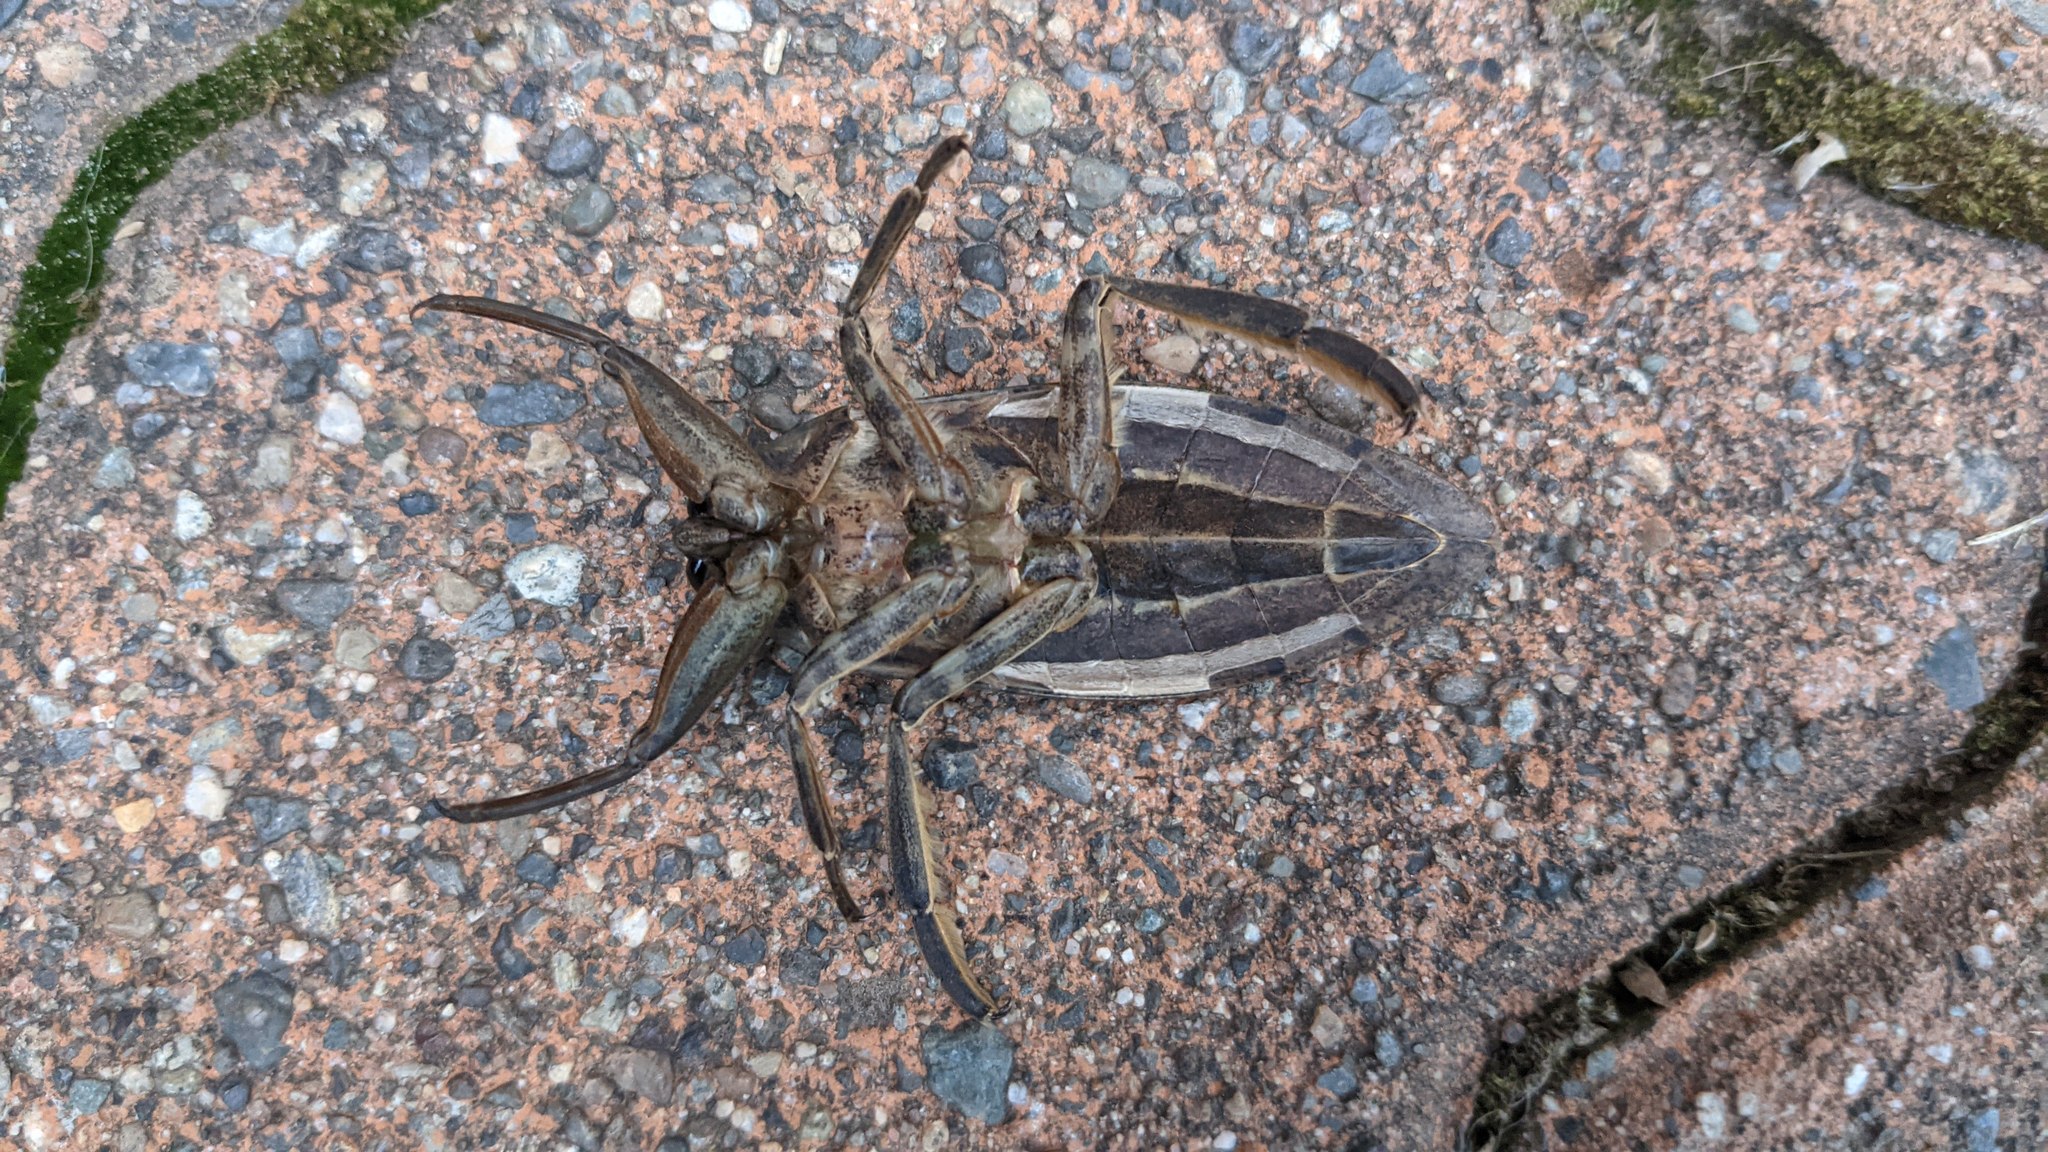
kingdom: Animalia
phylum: Arthropoda
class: Insecta
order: Hemiptera
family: Belostomatidae
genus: Lethocerus
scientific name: Lethocerus americanus
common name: Giant water bug
